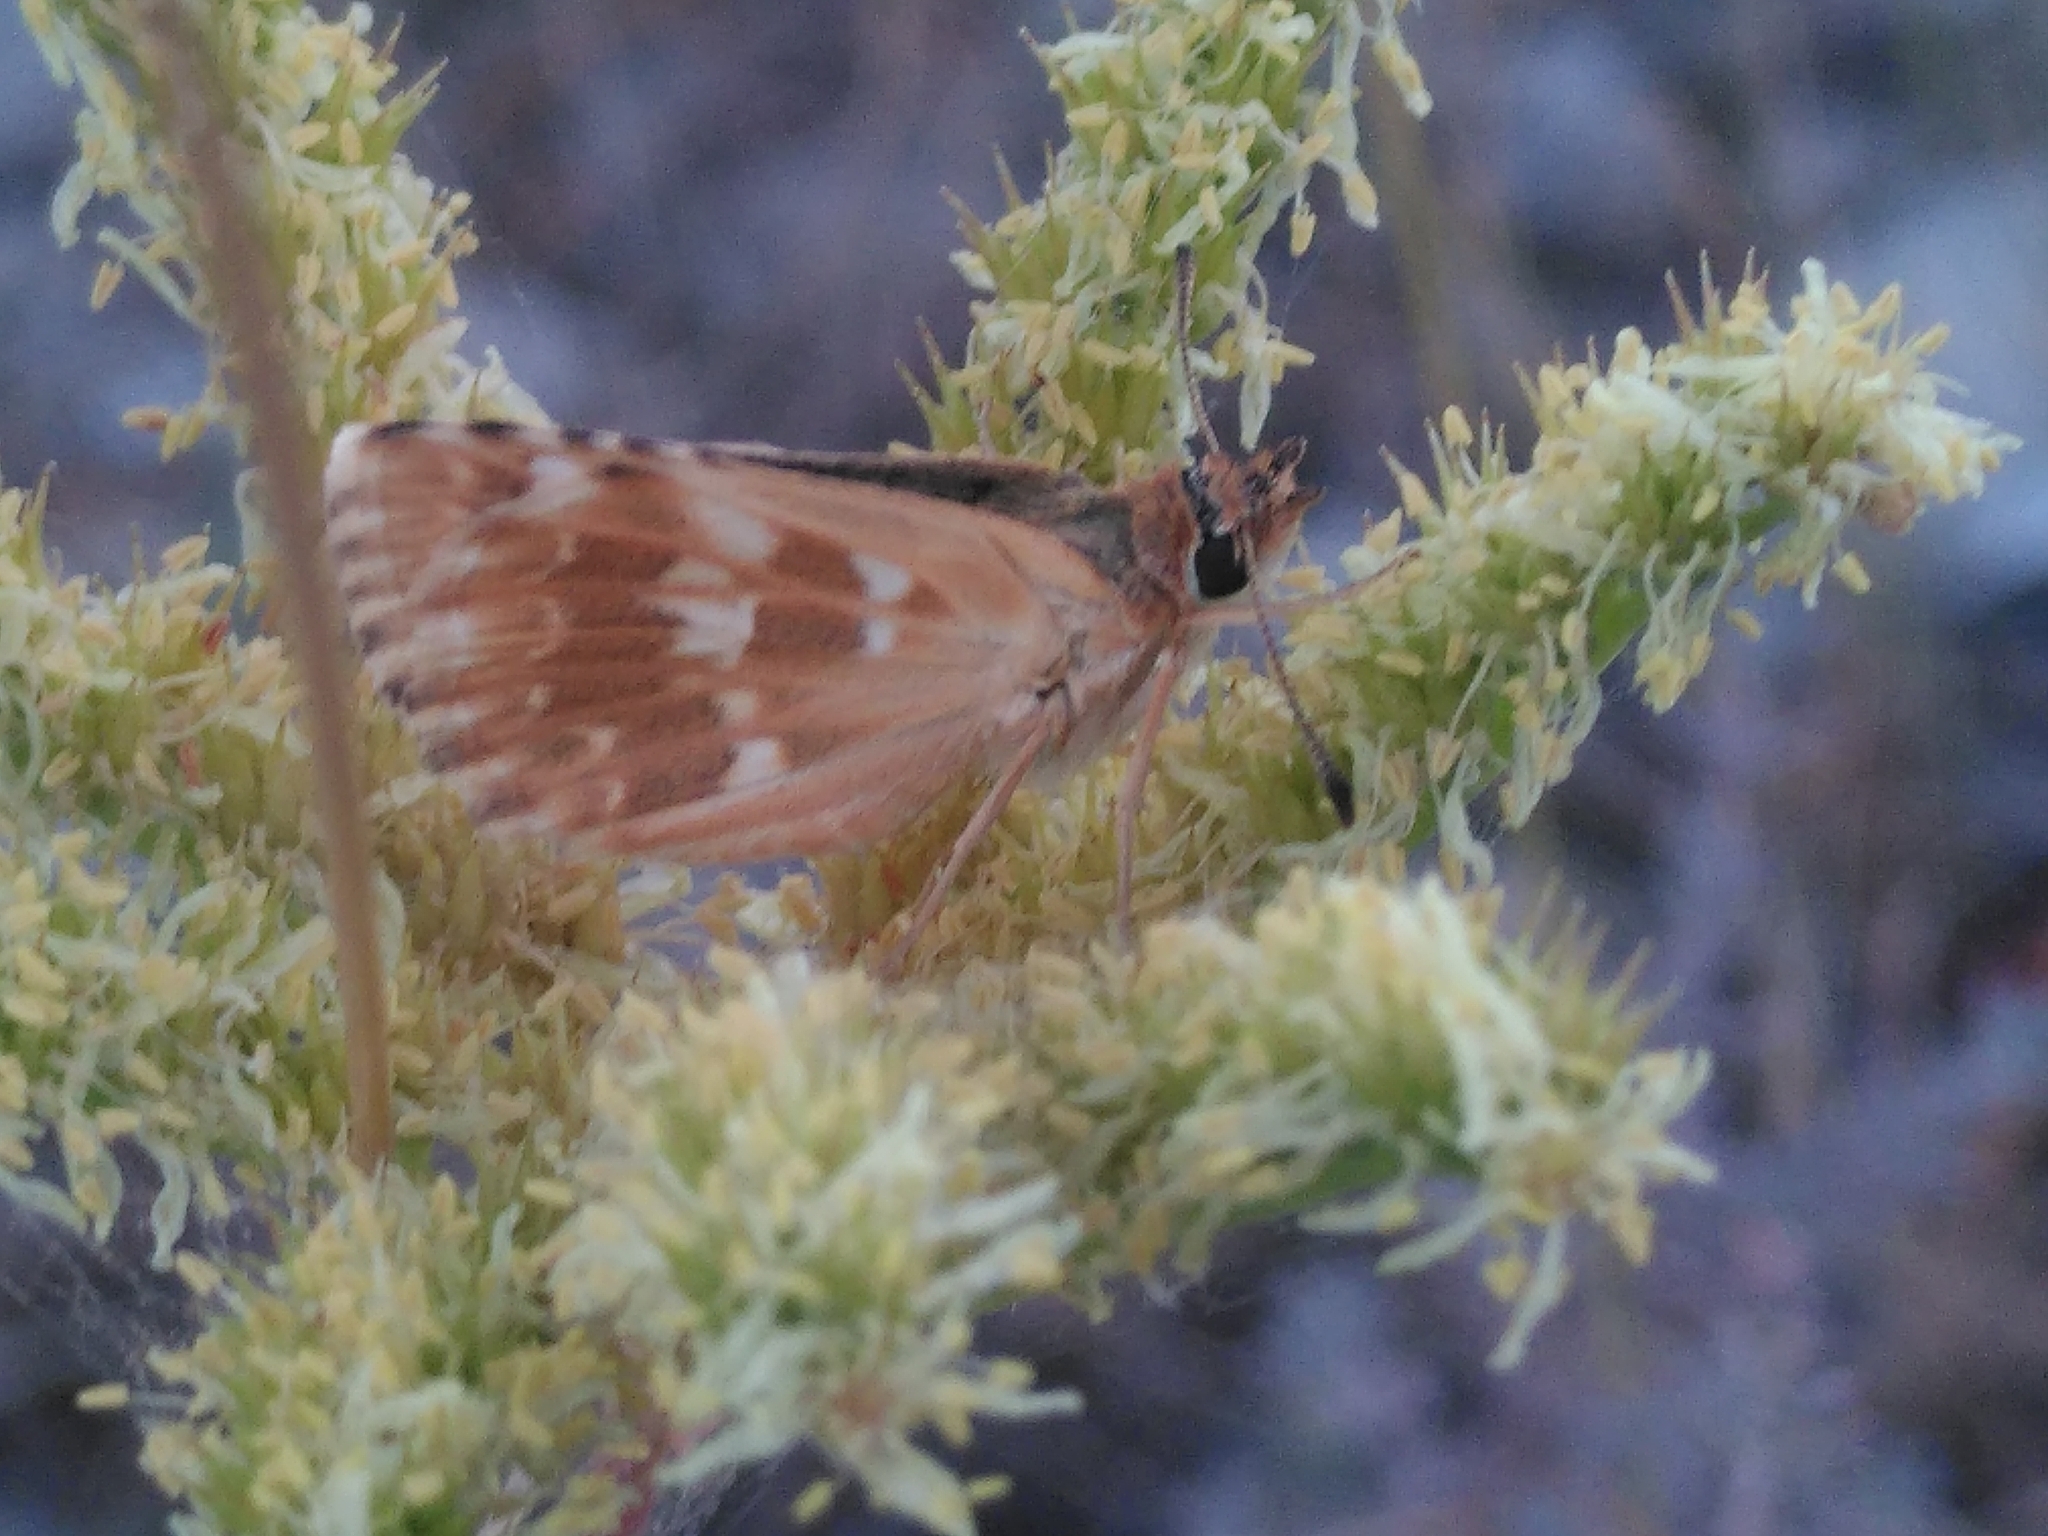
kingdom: Animalia
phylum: Arthropoda
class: Insecta
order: Lepidoptera
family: Hesperiidae
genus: Syrichtus
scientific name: Syrichtus Muschampia proto
